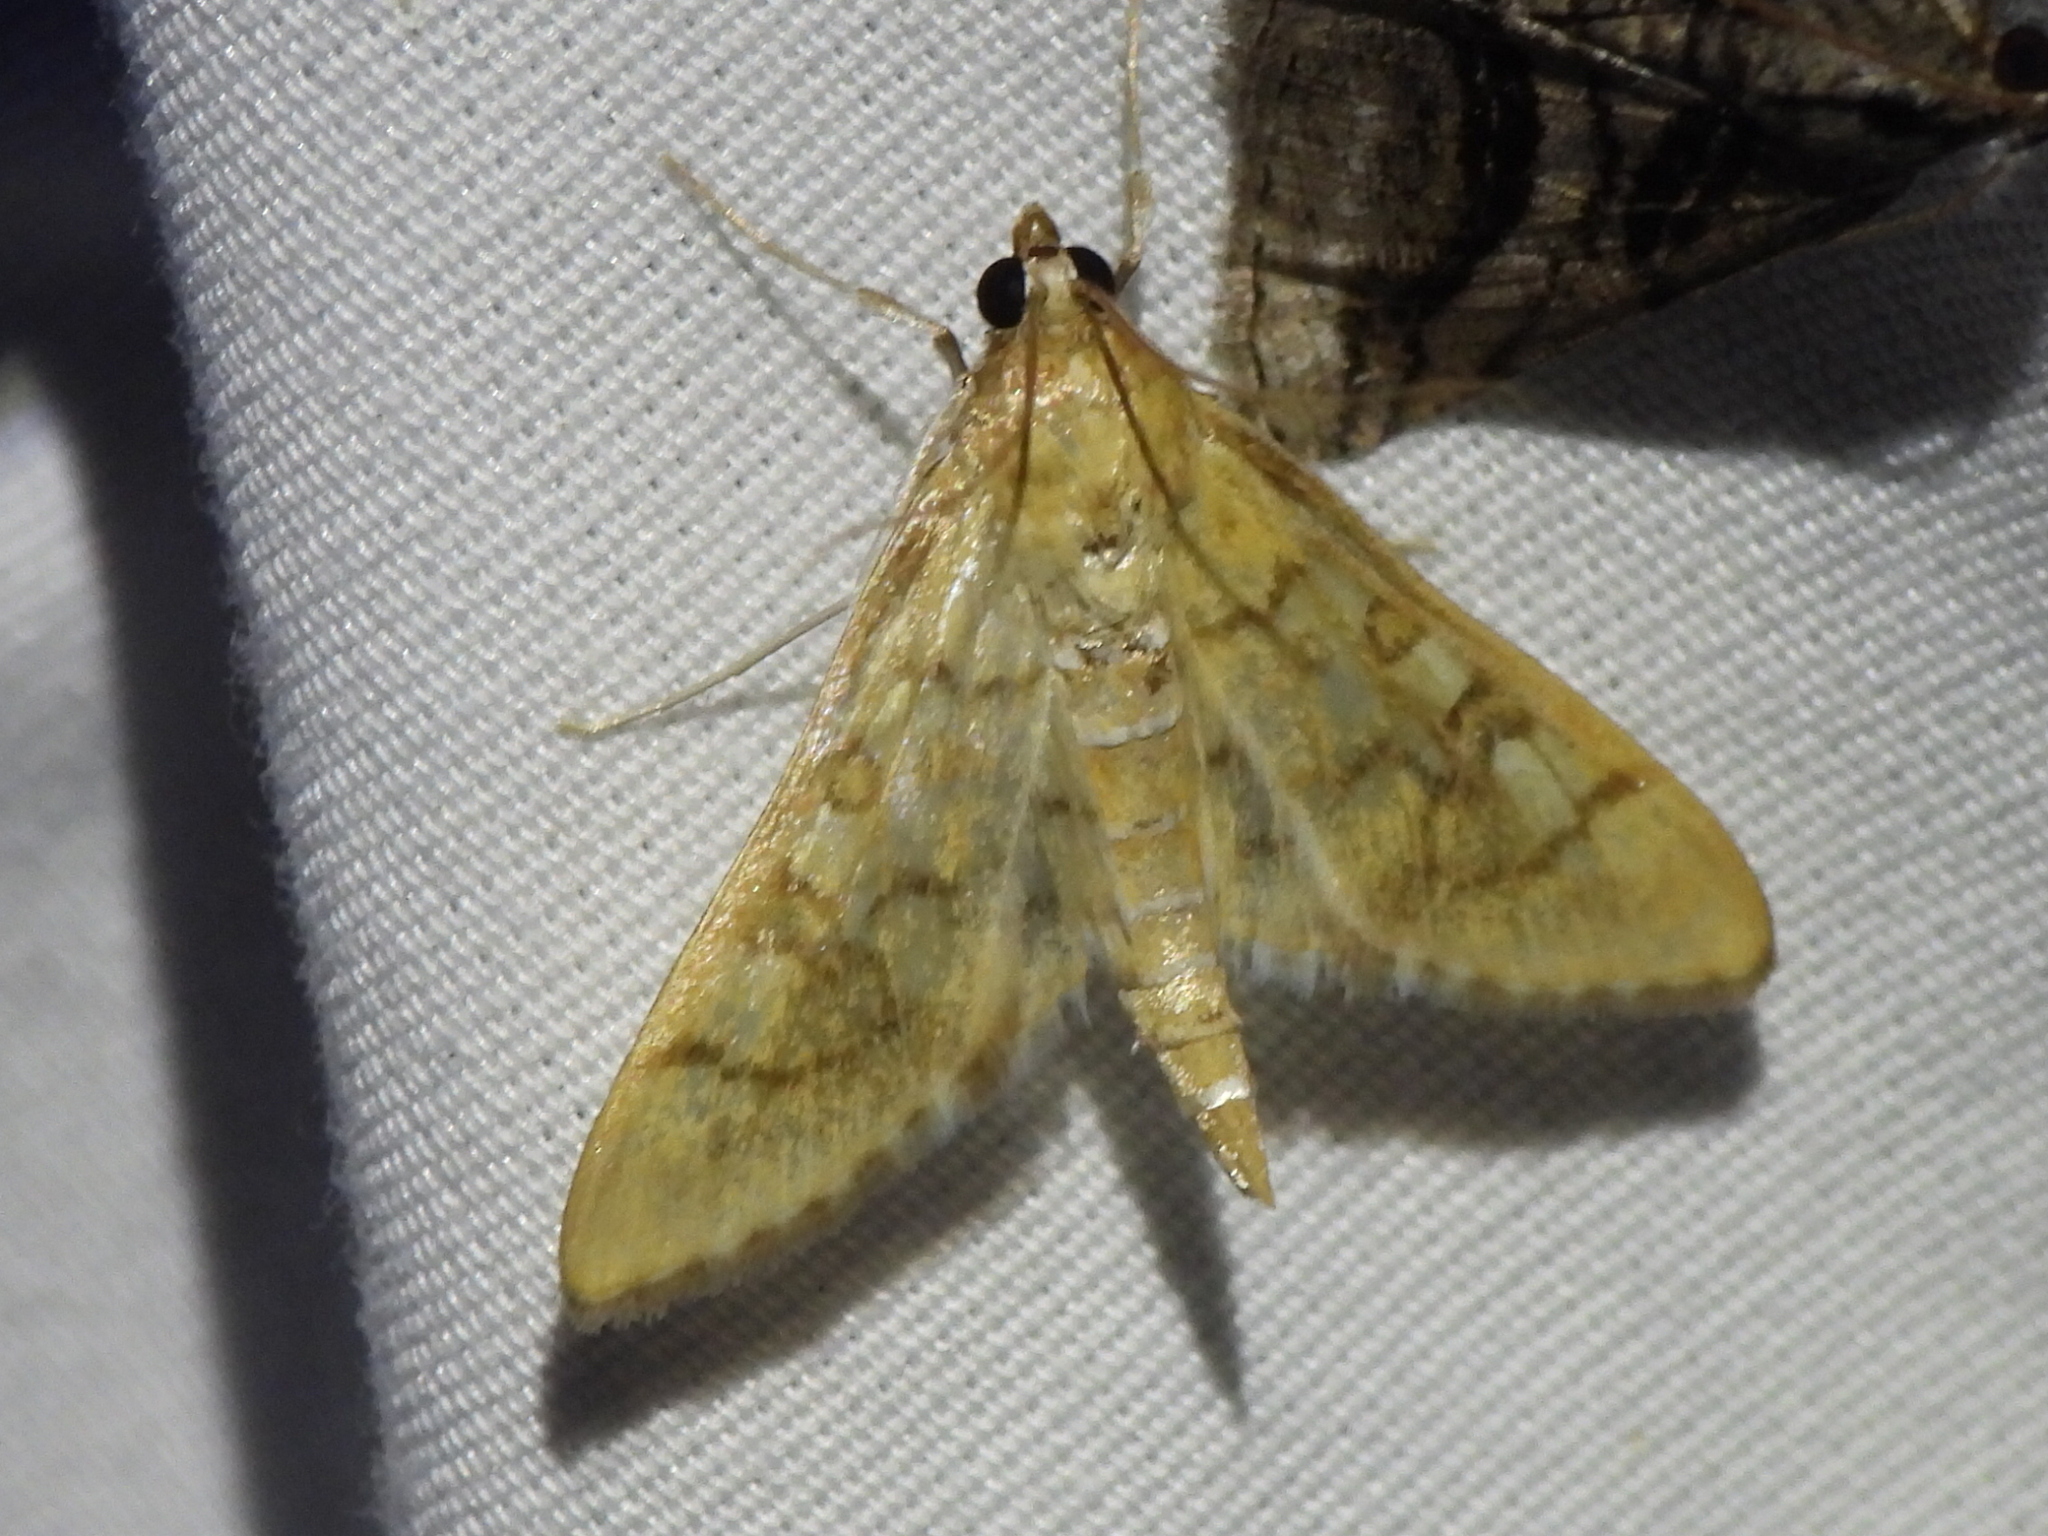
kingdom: Animalia
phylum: Arthropoda
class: Insecta
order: Lepidoptera
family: Crambidae
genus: Lamprosema
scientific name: Lamprosema Blepharomastix ranalis
